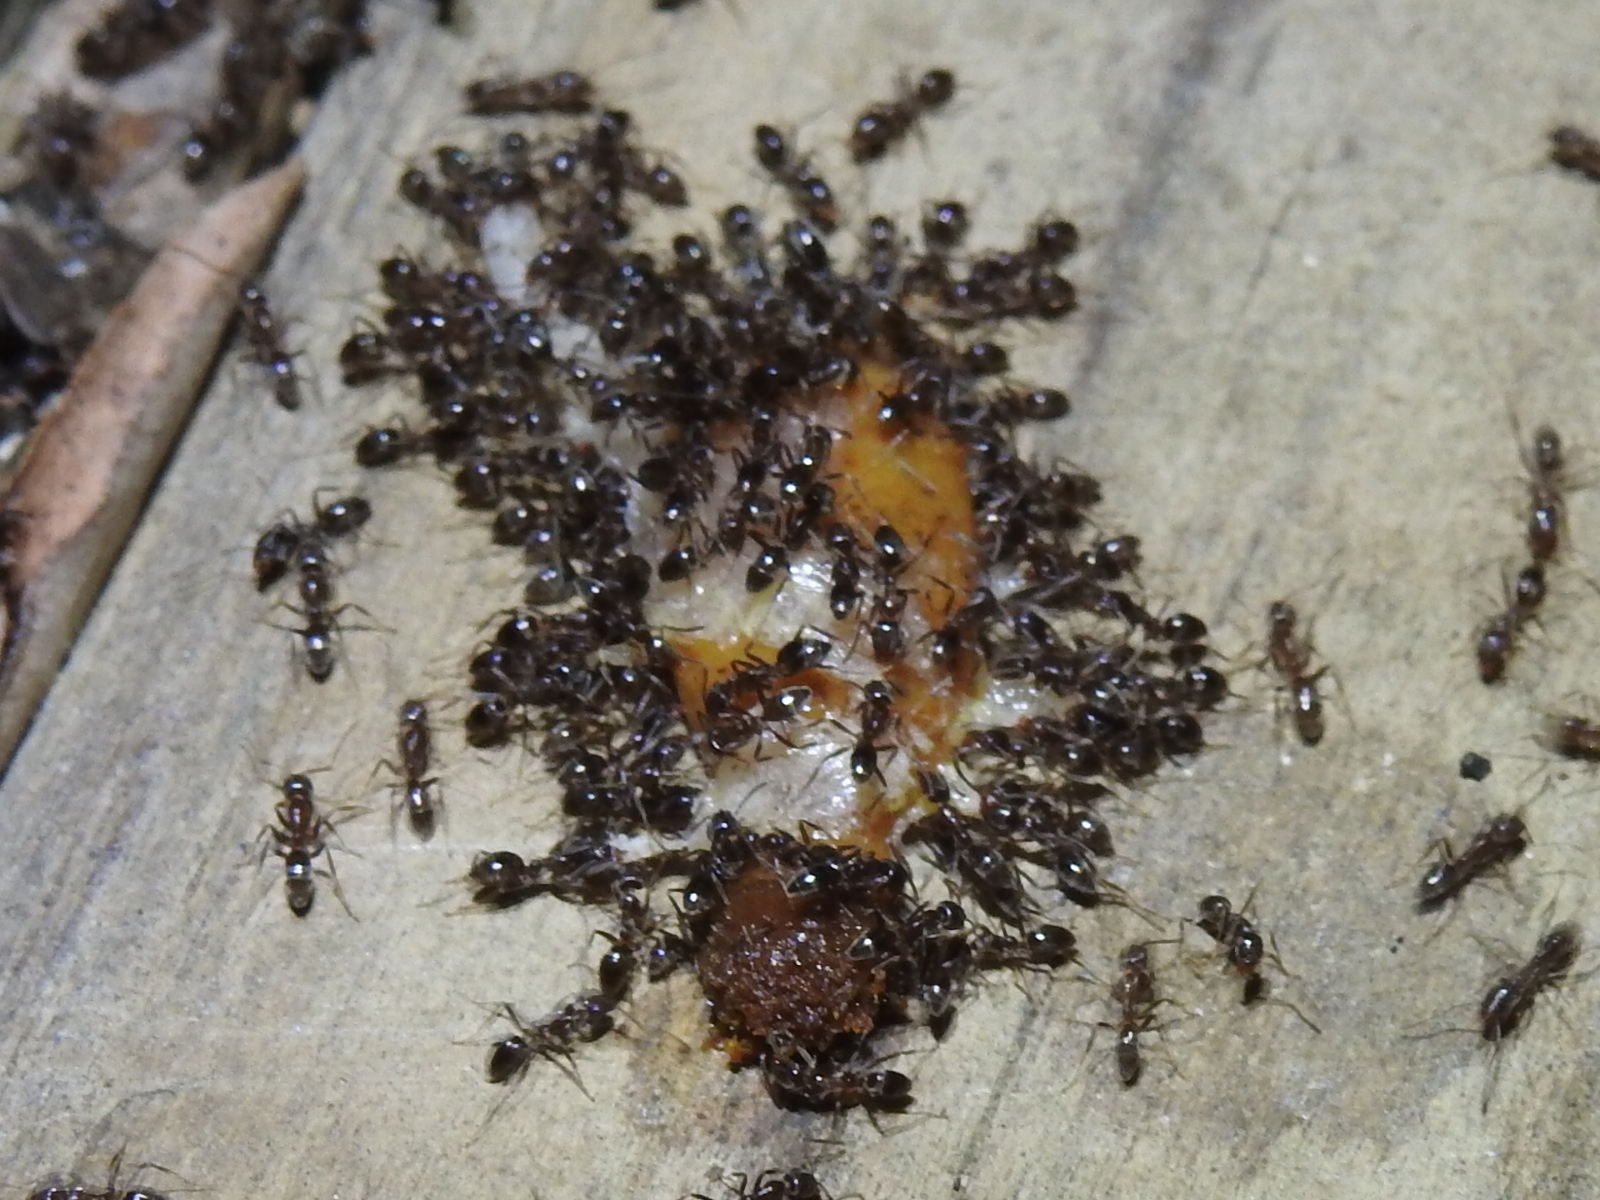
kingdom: Animalia
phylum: Arthropoda
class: Insecta
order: Hymenoptera
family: Formicidae
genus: Linepithema
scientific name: Linepithema humile
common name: Argentine ant
